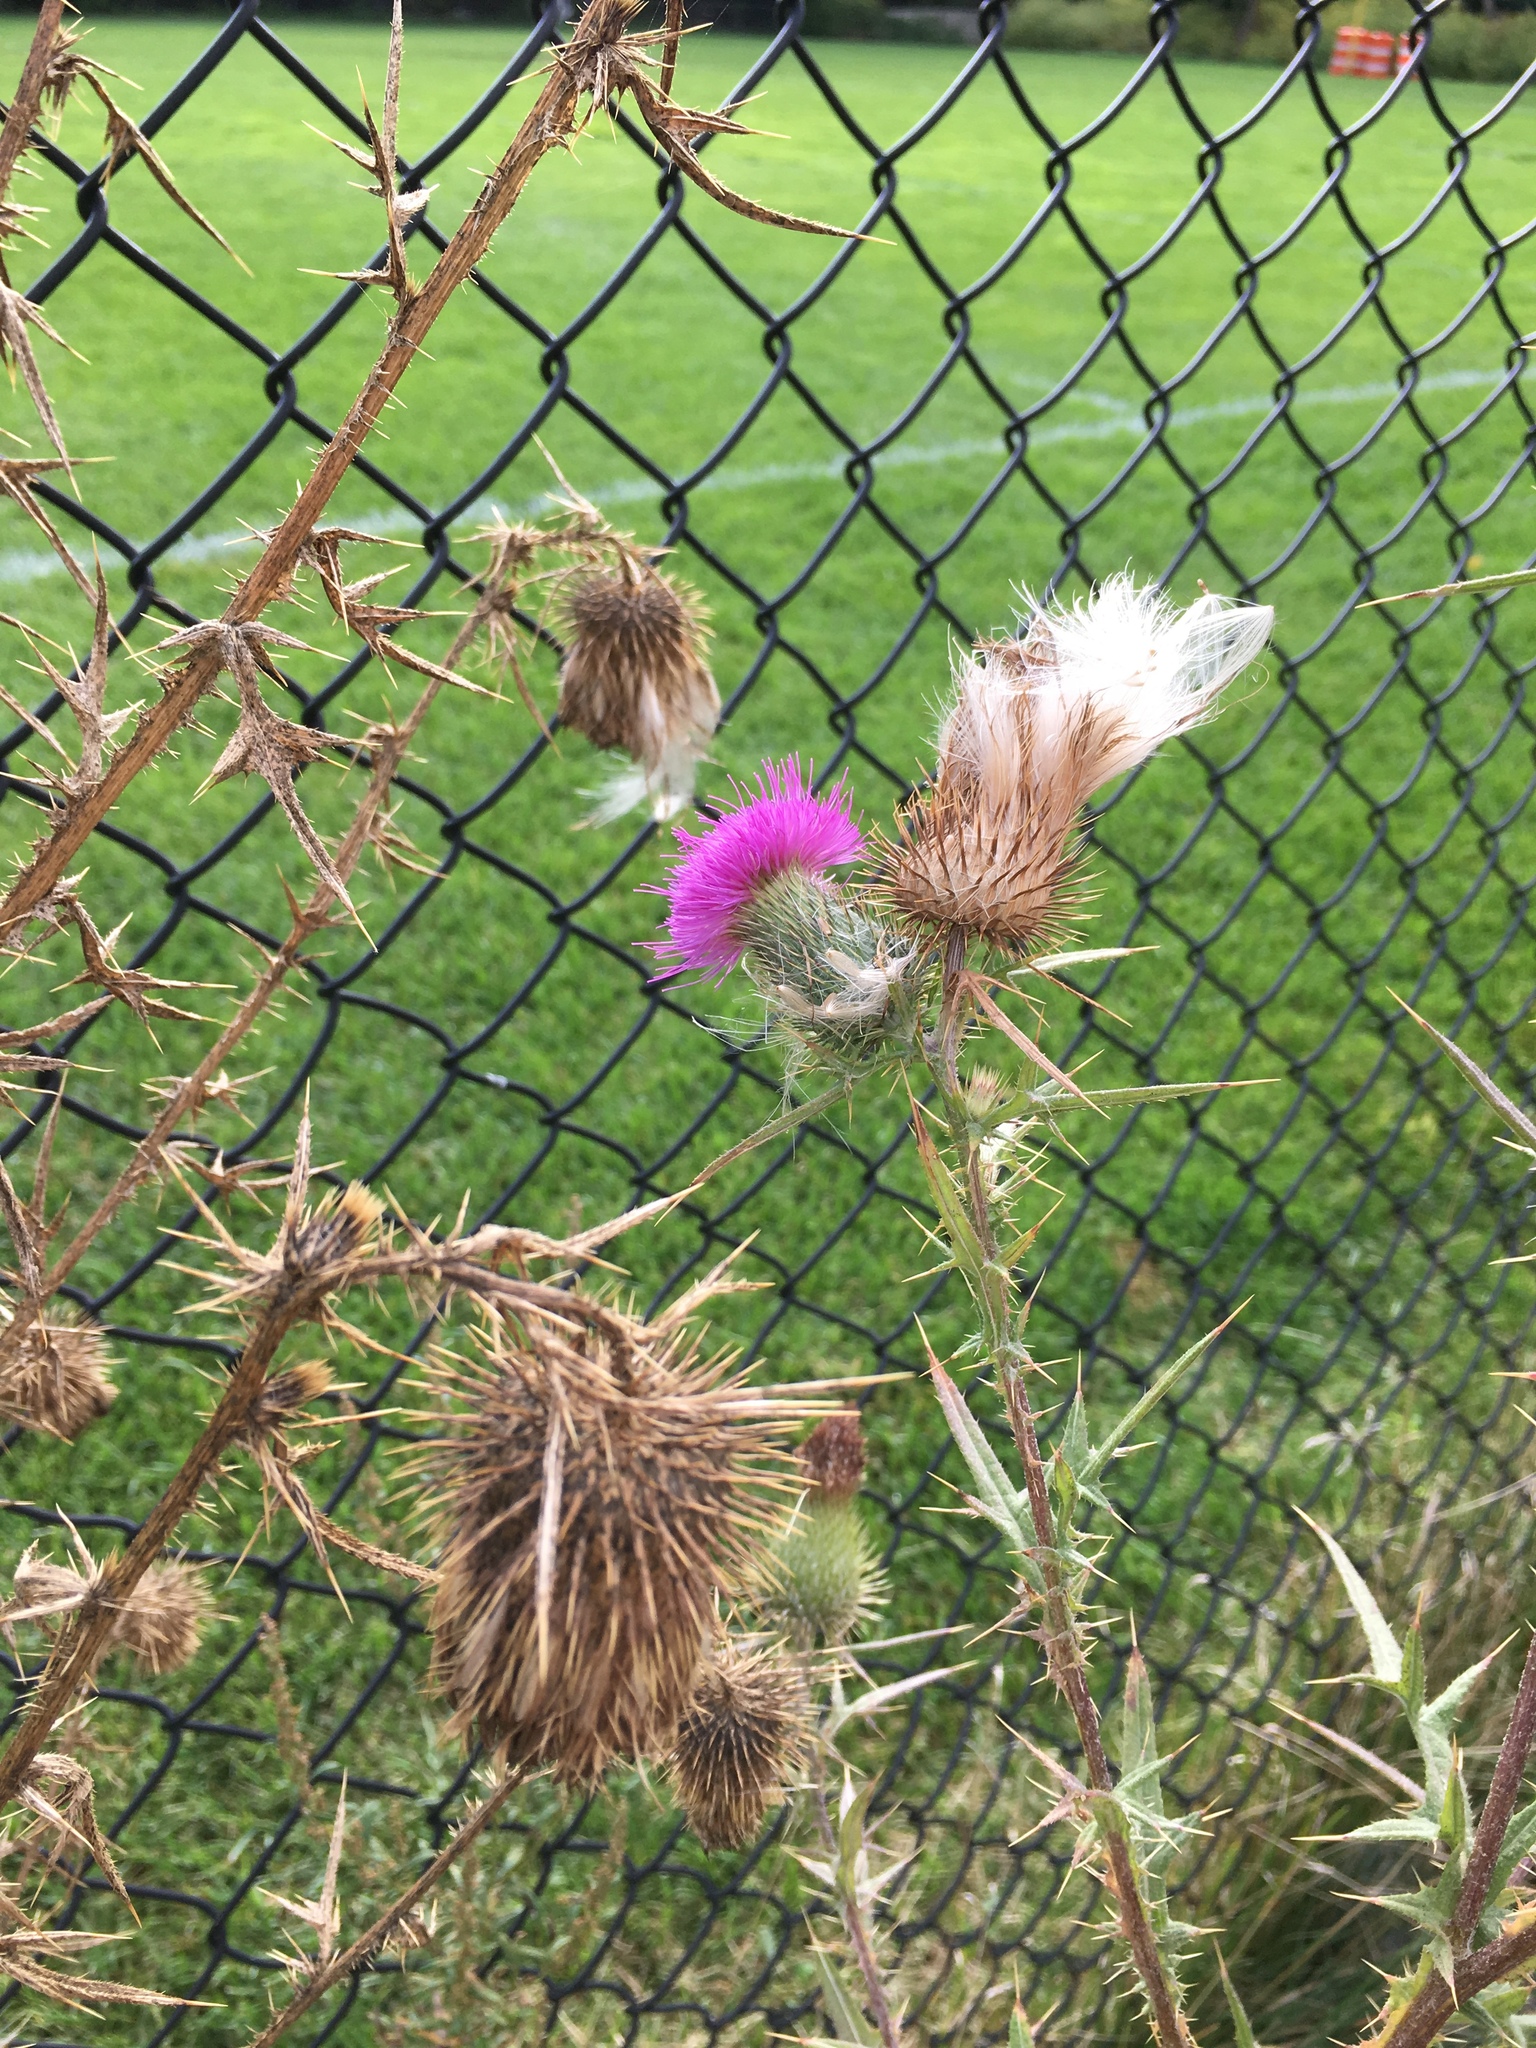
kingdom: Plantae
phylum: Tracheophyta
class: Magnoliopsida
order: Asterales
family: Asteraceae
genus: Cirsium
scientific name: Cirsium vulgare
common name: Bull thistle
